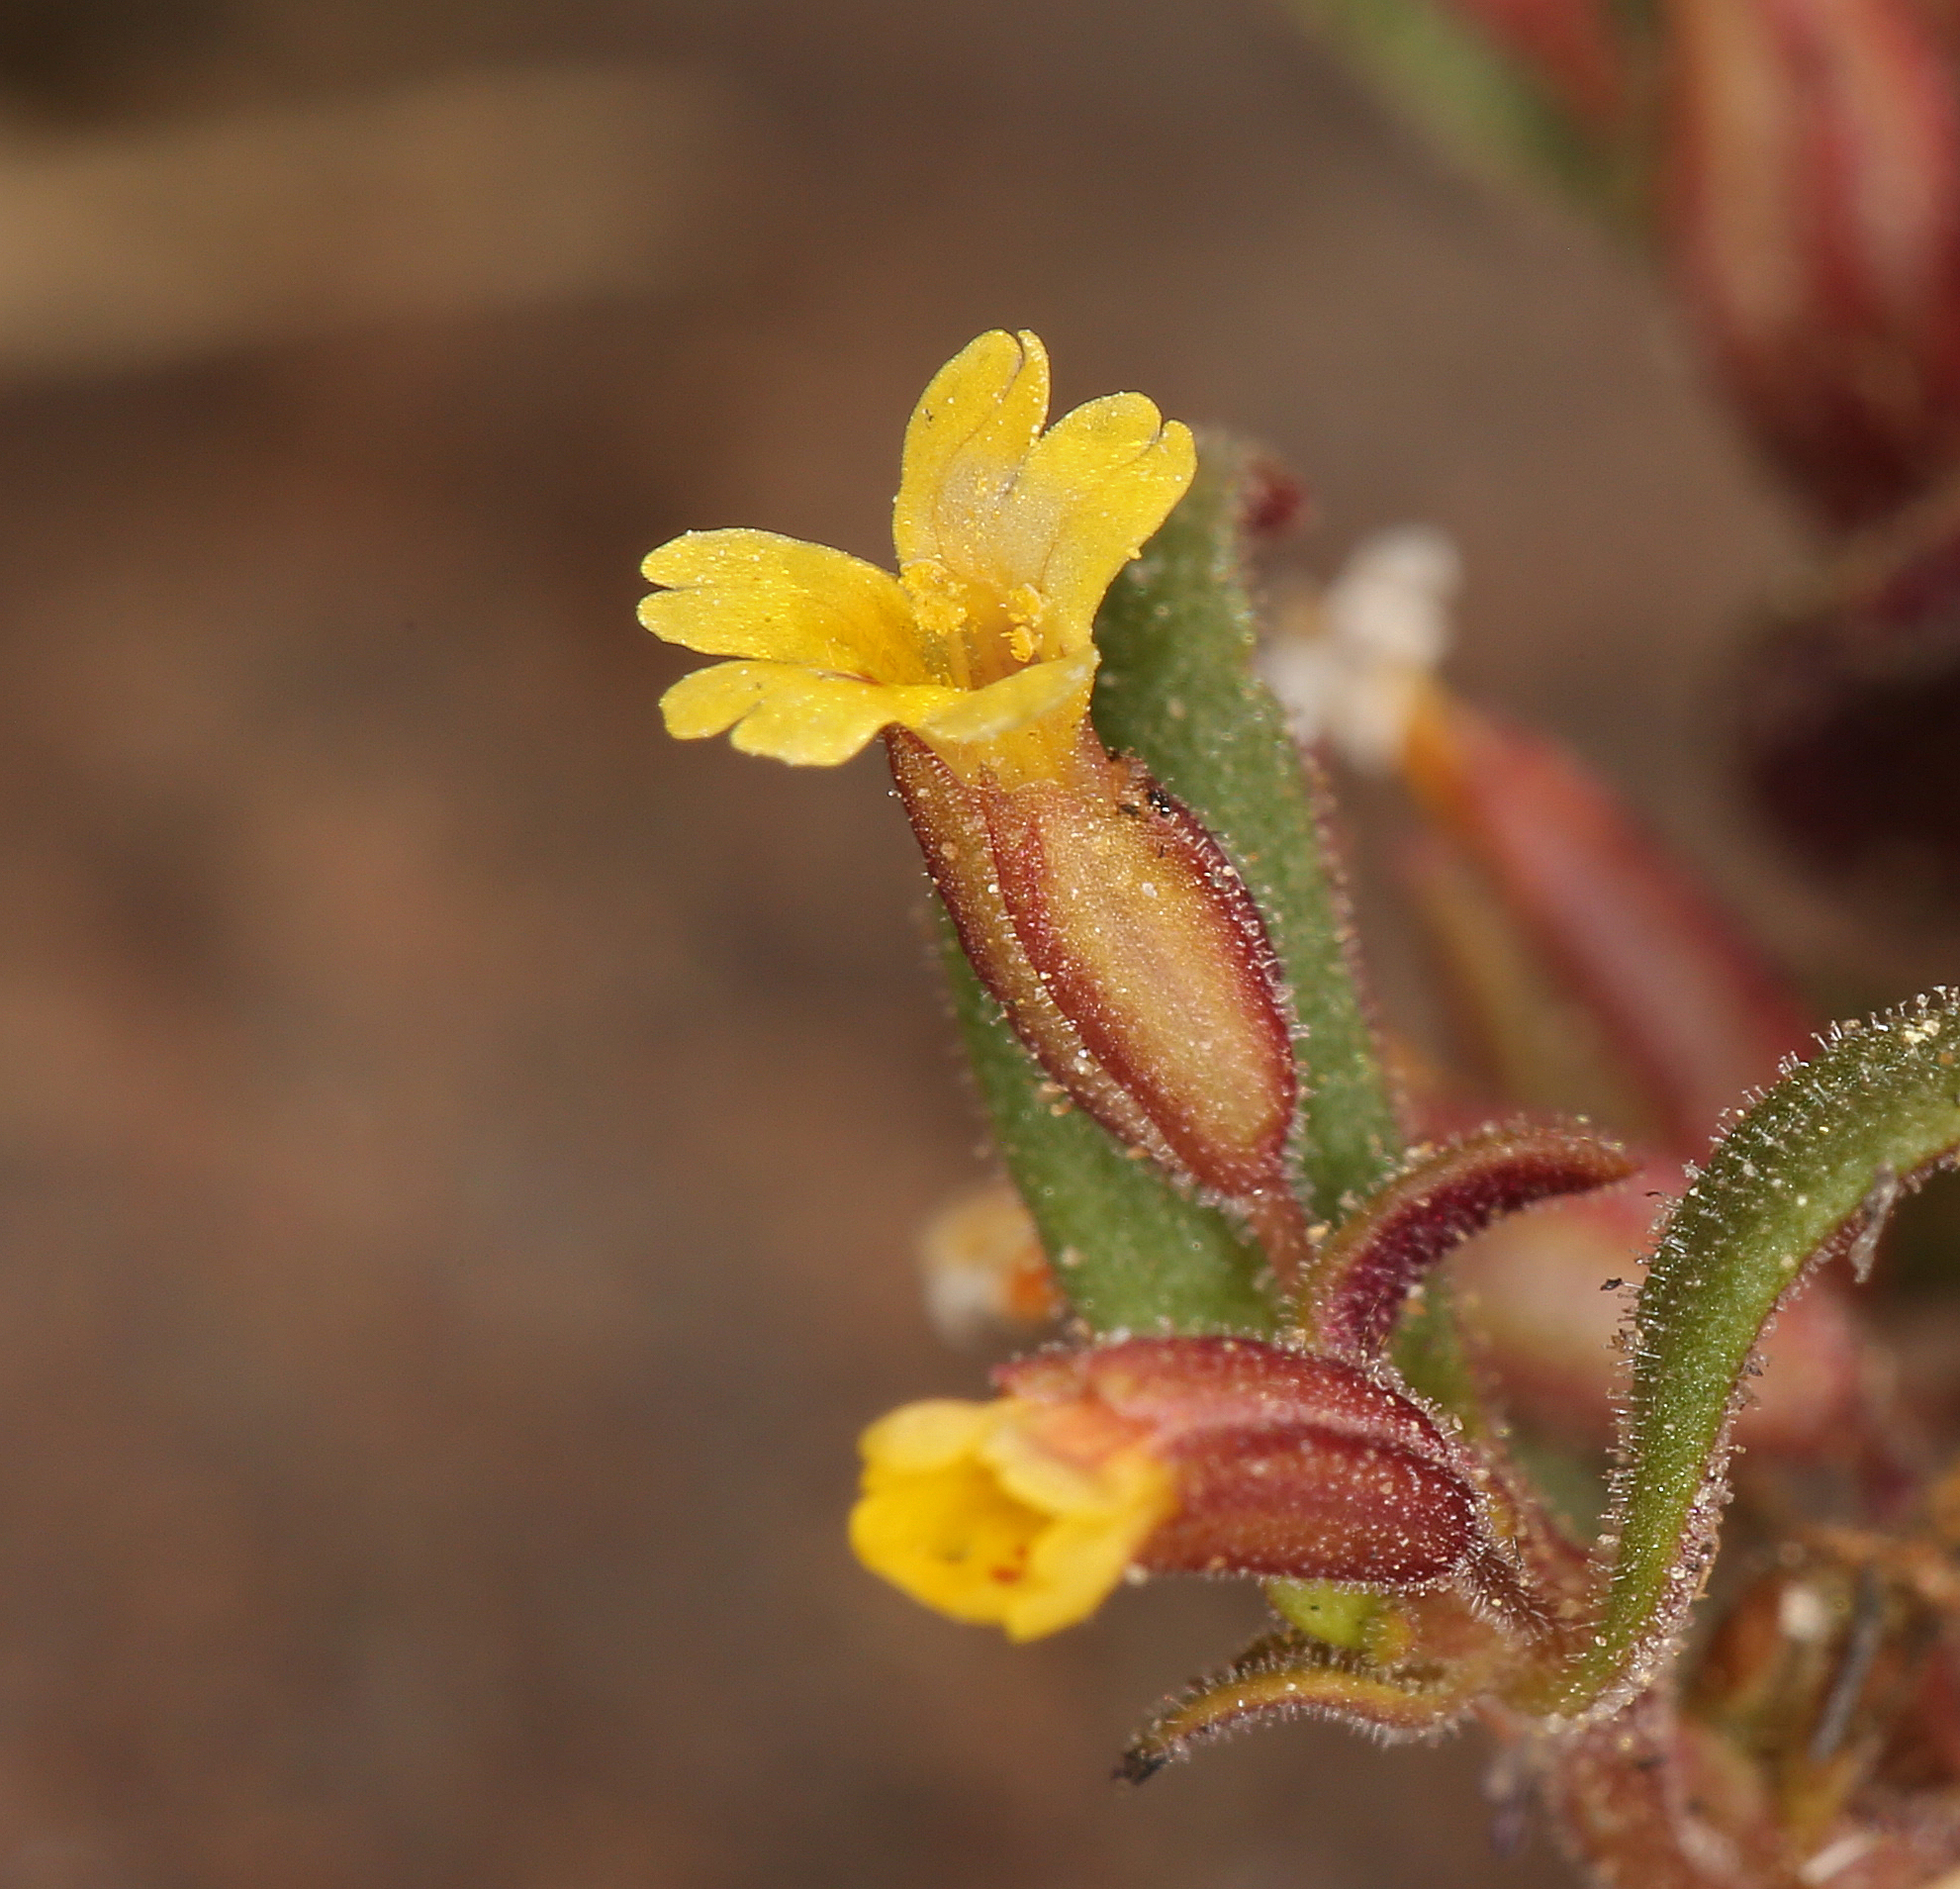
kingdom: Plantae
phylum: Tracheophyta
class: Magnoliopsida
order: Lamiales
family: Phrymaceae
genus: Erythranthe
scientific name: Erythranthe suksdorfii
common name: Suksdorf's monkeyflower
